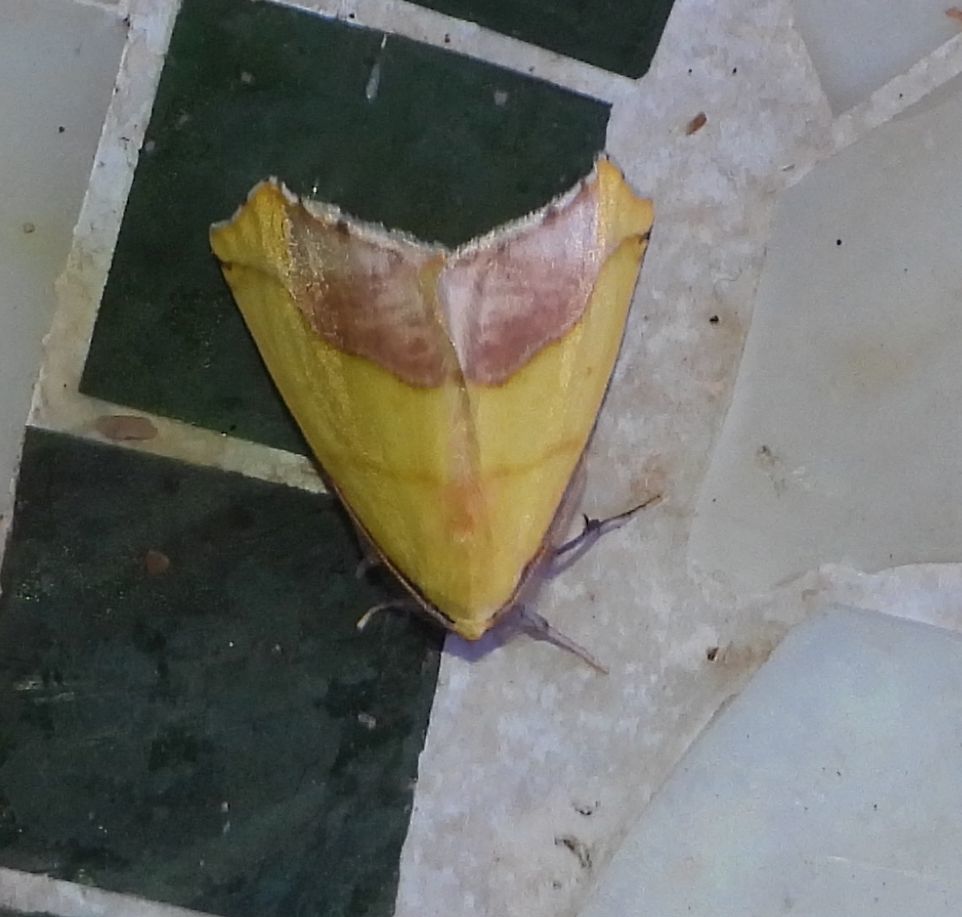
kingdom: Animalia
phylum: Arthropoda
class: Insecta
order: Lepidoptera
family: Geometridae
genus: Sicya
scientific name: Sicya macularia
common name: Sharp-lined yellow
